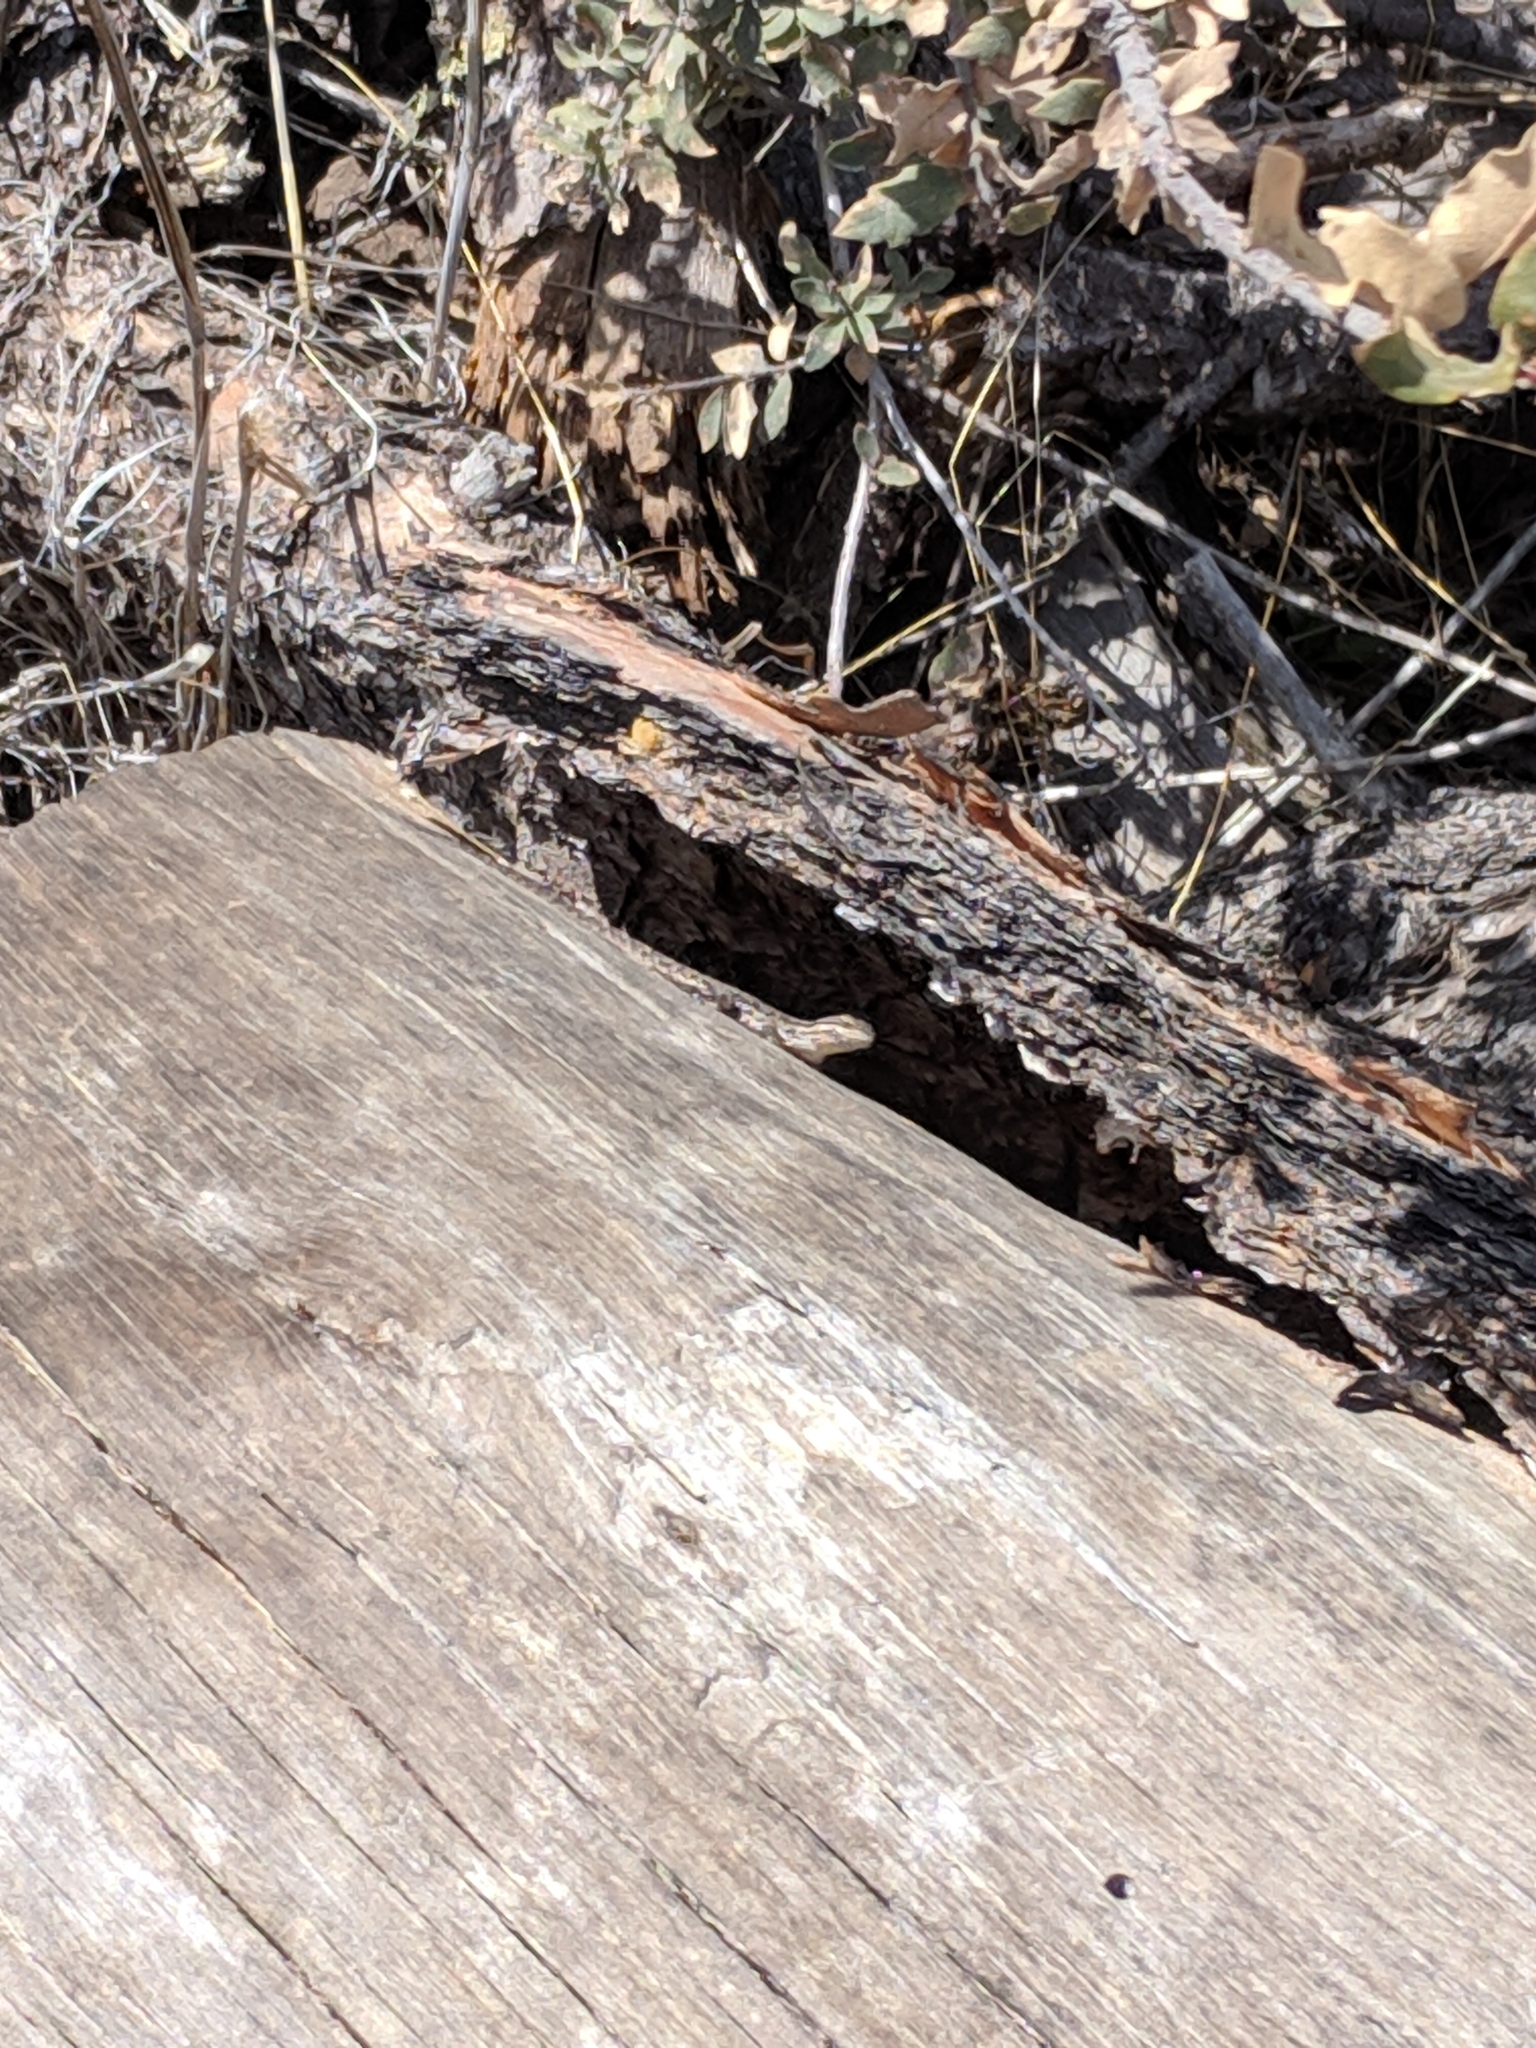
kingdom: Animalia
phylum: Chordata
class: Squamata
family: Phrynosomatidae
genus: Urosaurus
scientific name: Urosaurus ornatus
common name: Ornate tree lizard
